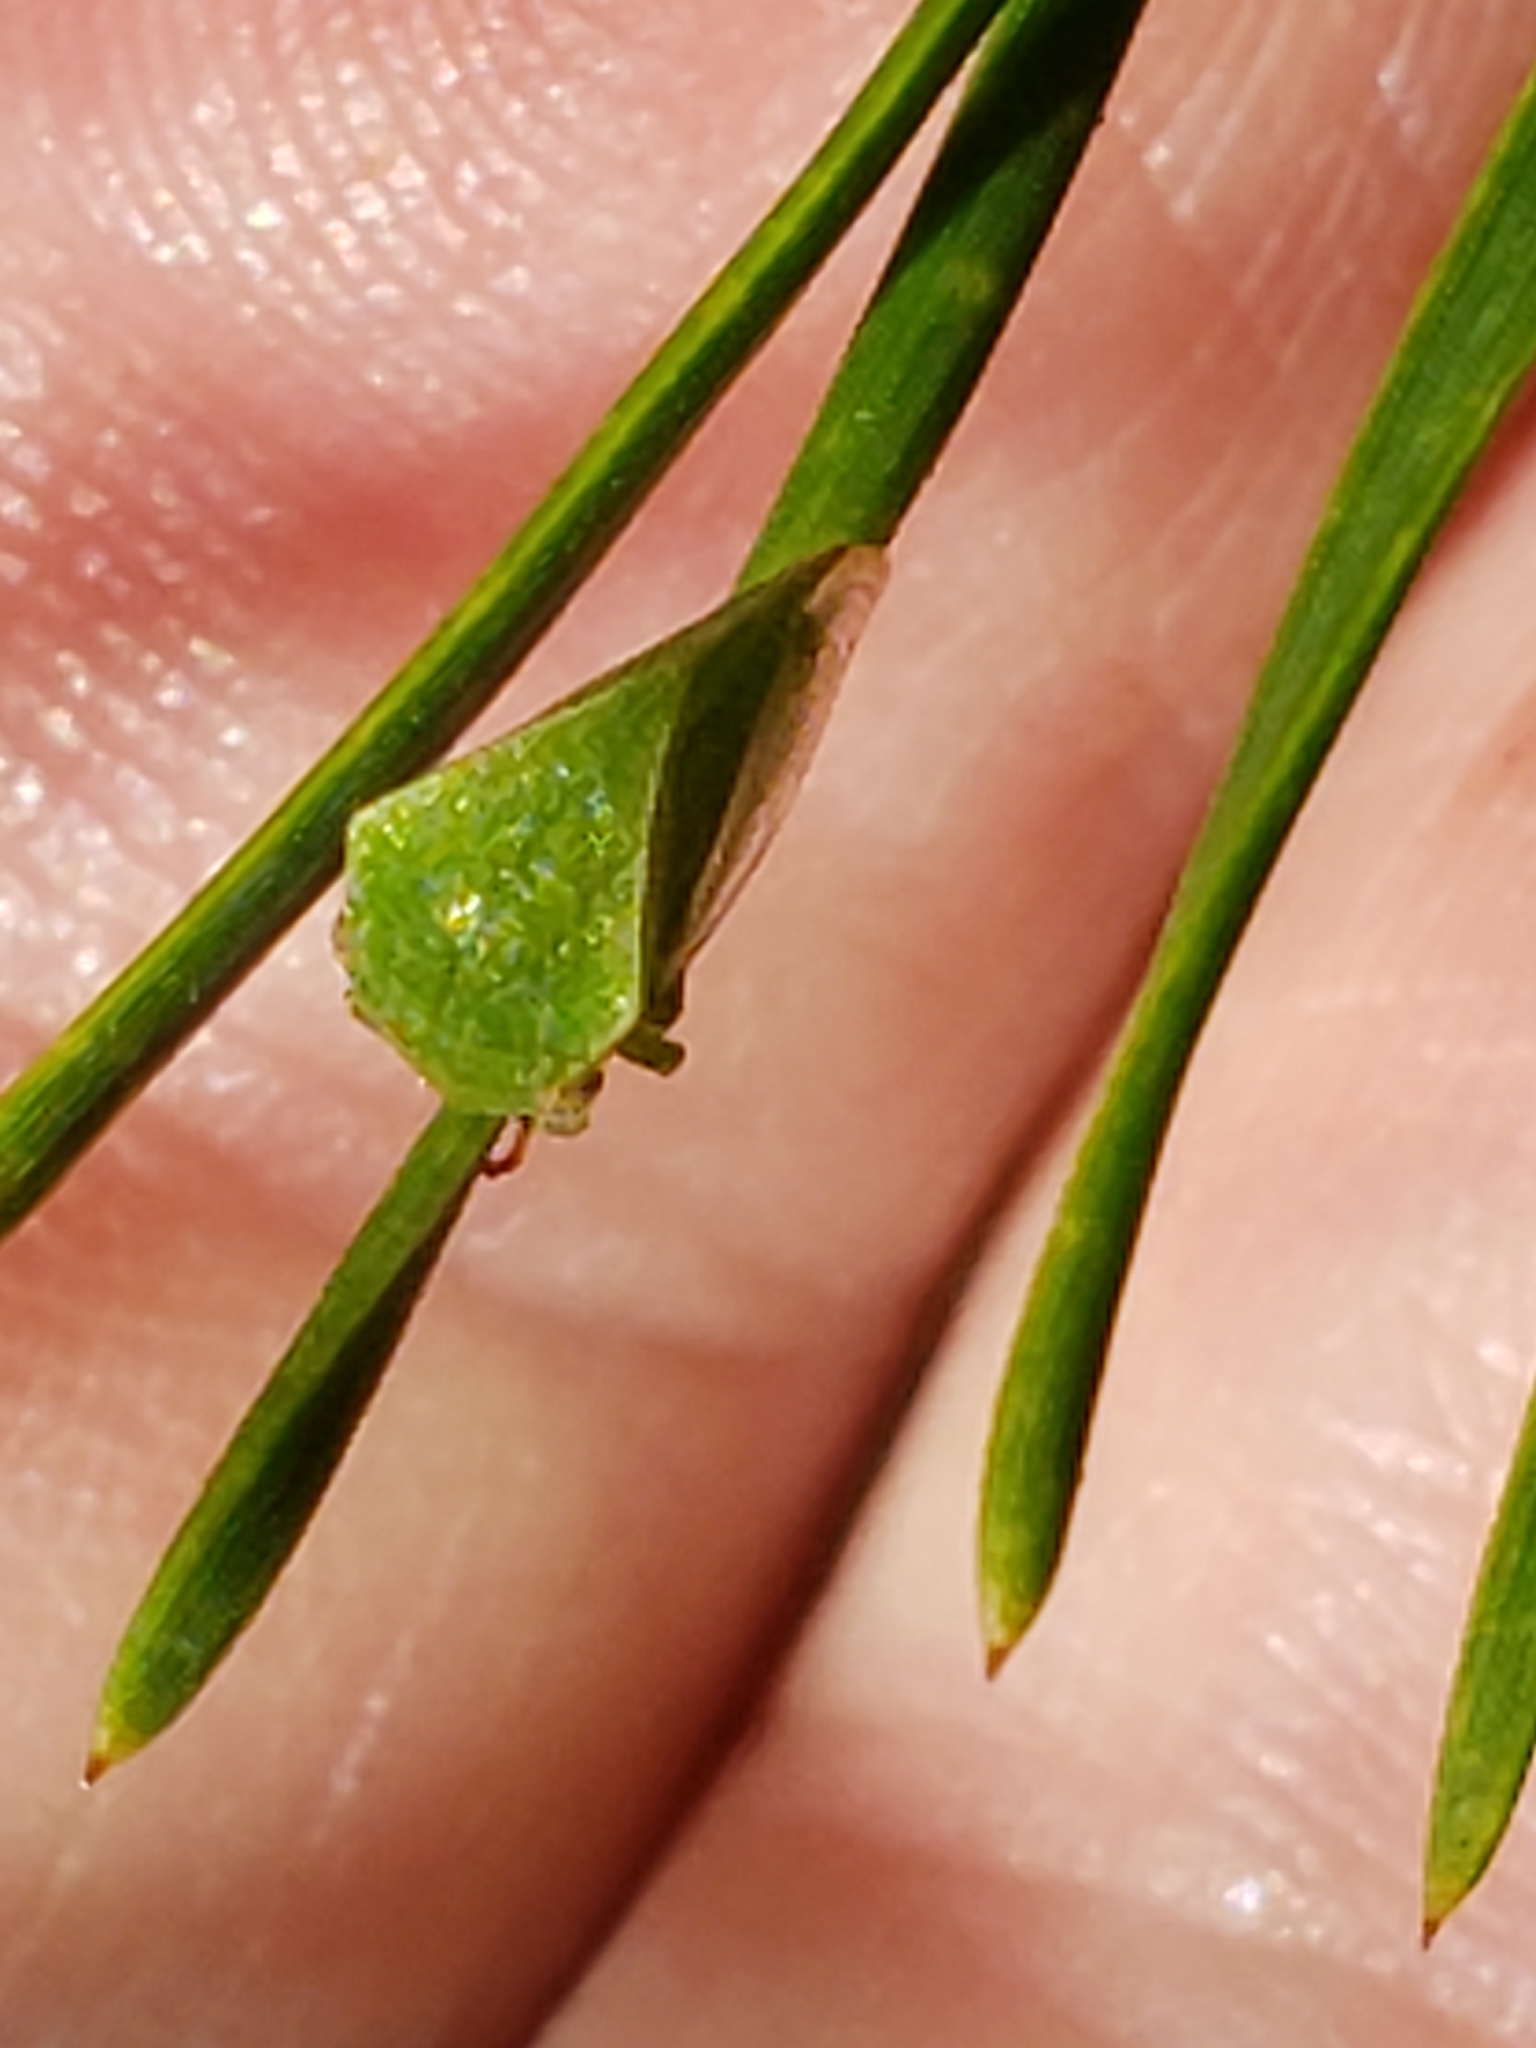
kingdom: Animalia
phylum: Arthropoda
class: Insecta
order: Hemiptera
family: Membracidae
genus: Spissistilus
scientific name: Spissistilus festina
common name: Membracid bug
